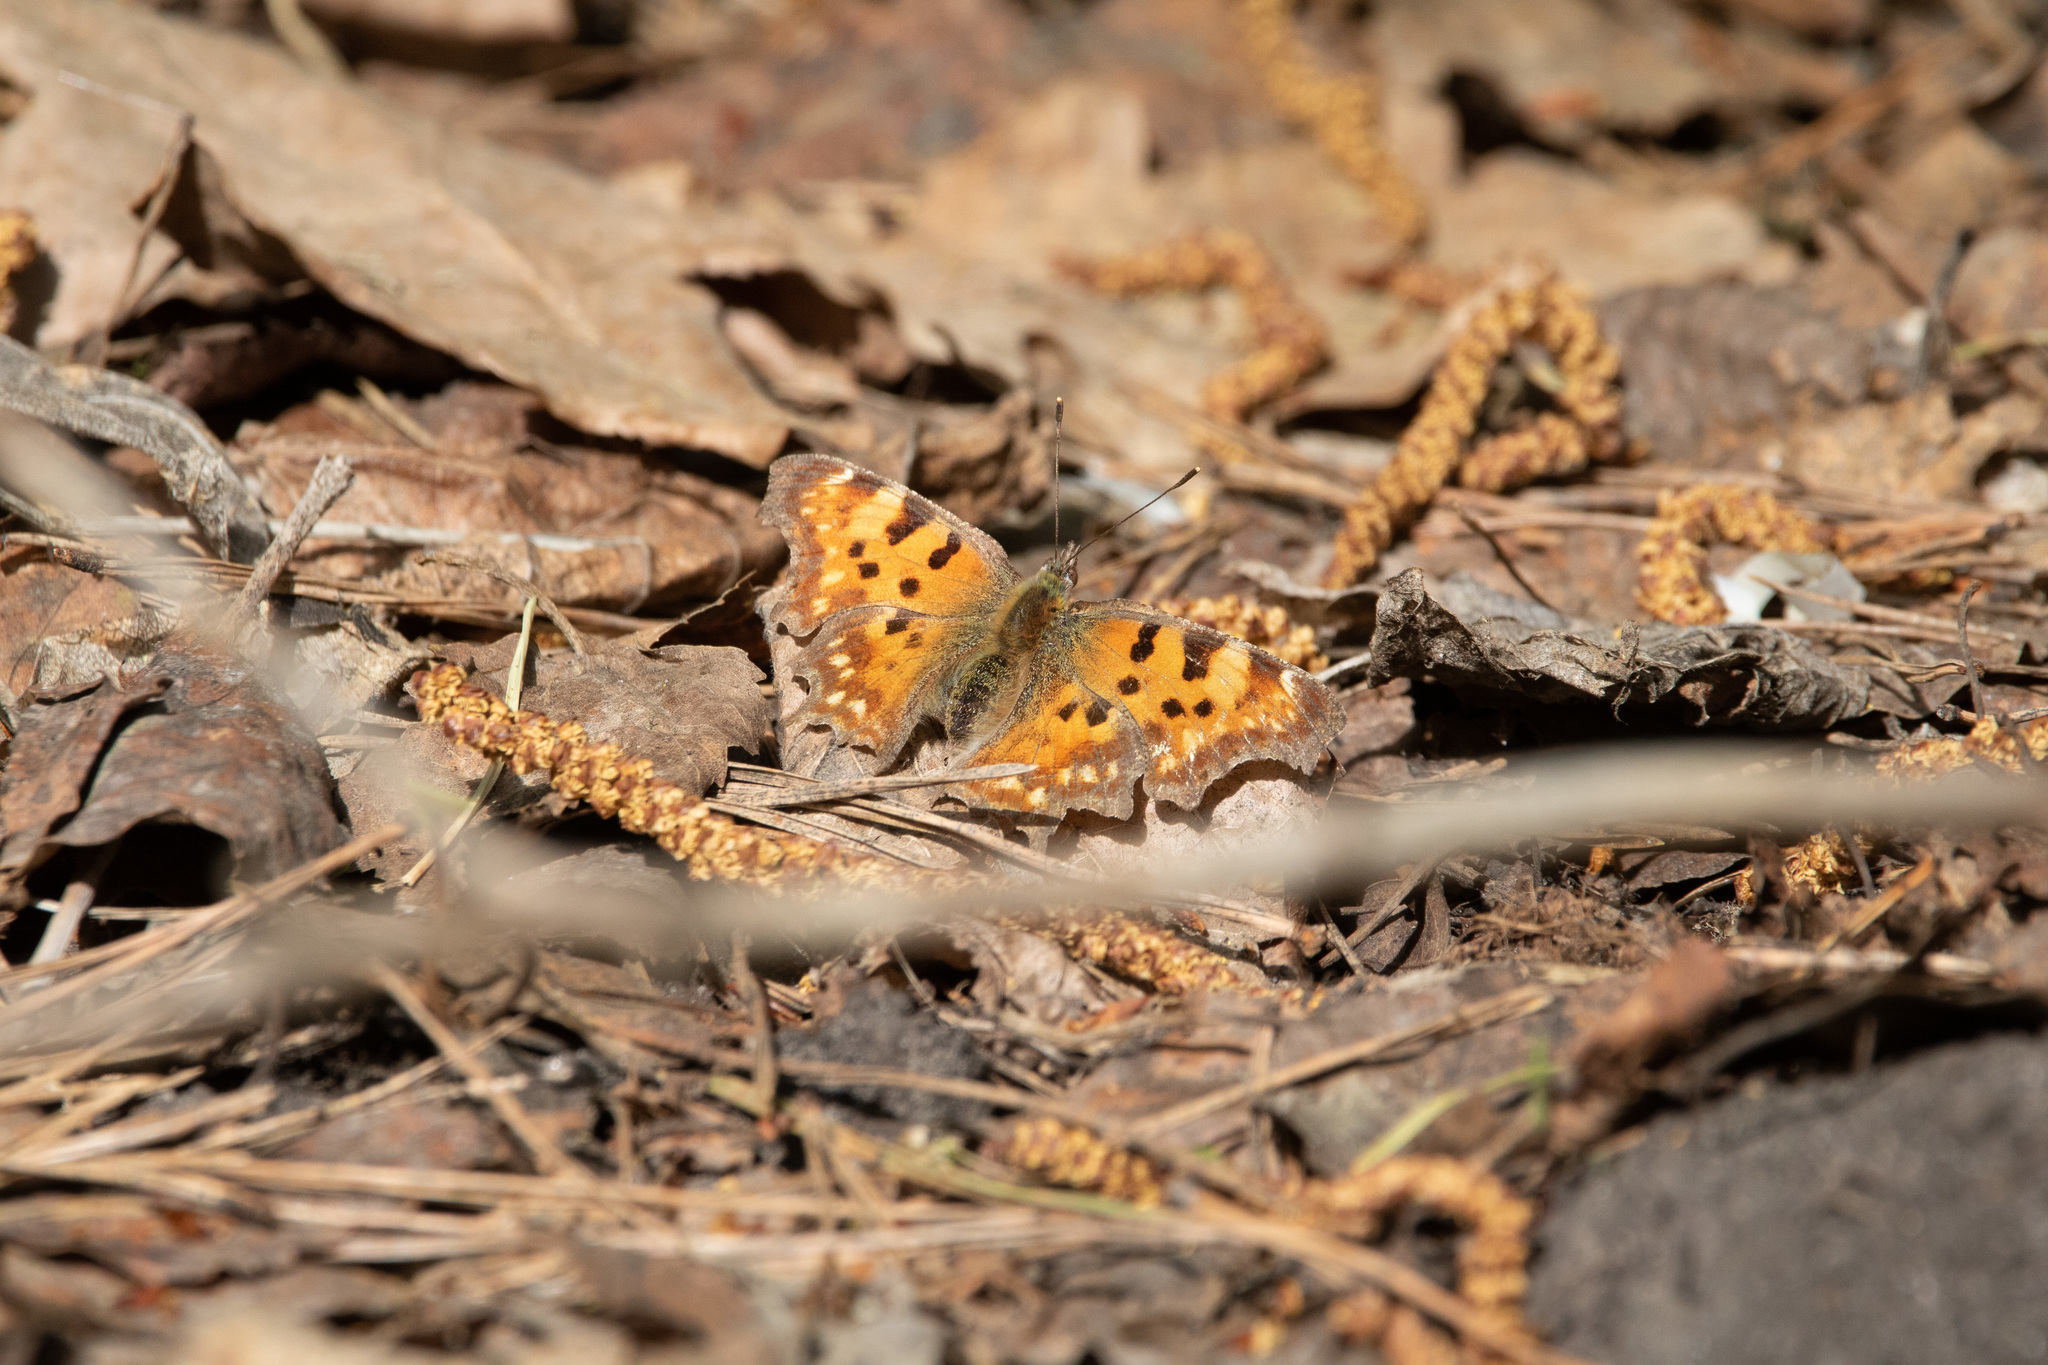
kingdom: Animalia
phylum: Arthropoda
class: Insecta
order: Lepidoptera
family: Nymphalidae
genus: Polygonia
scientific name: Polygonia c-album
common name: Comma
